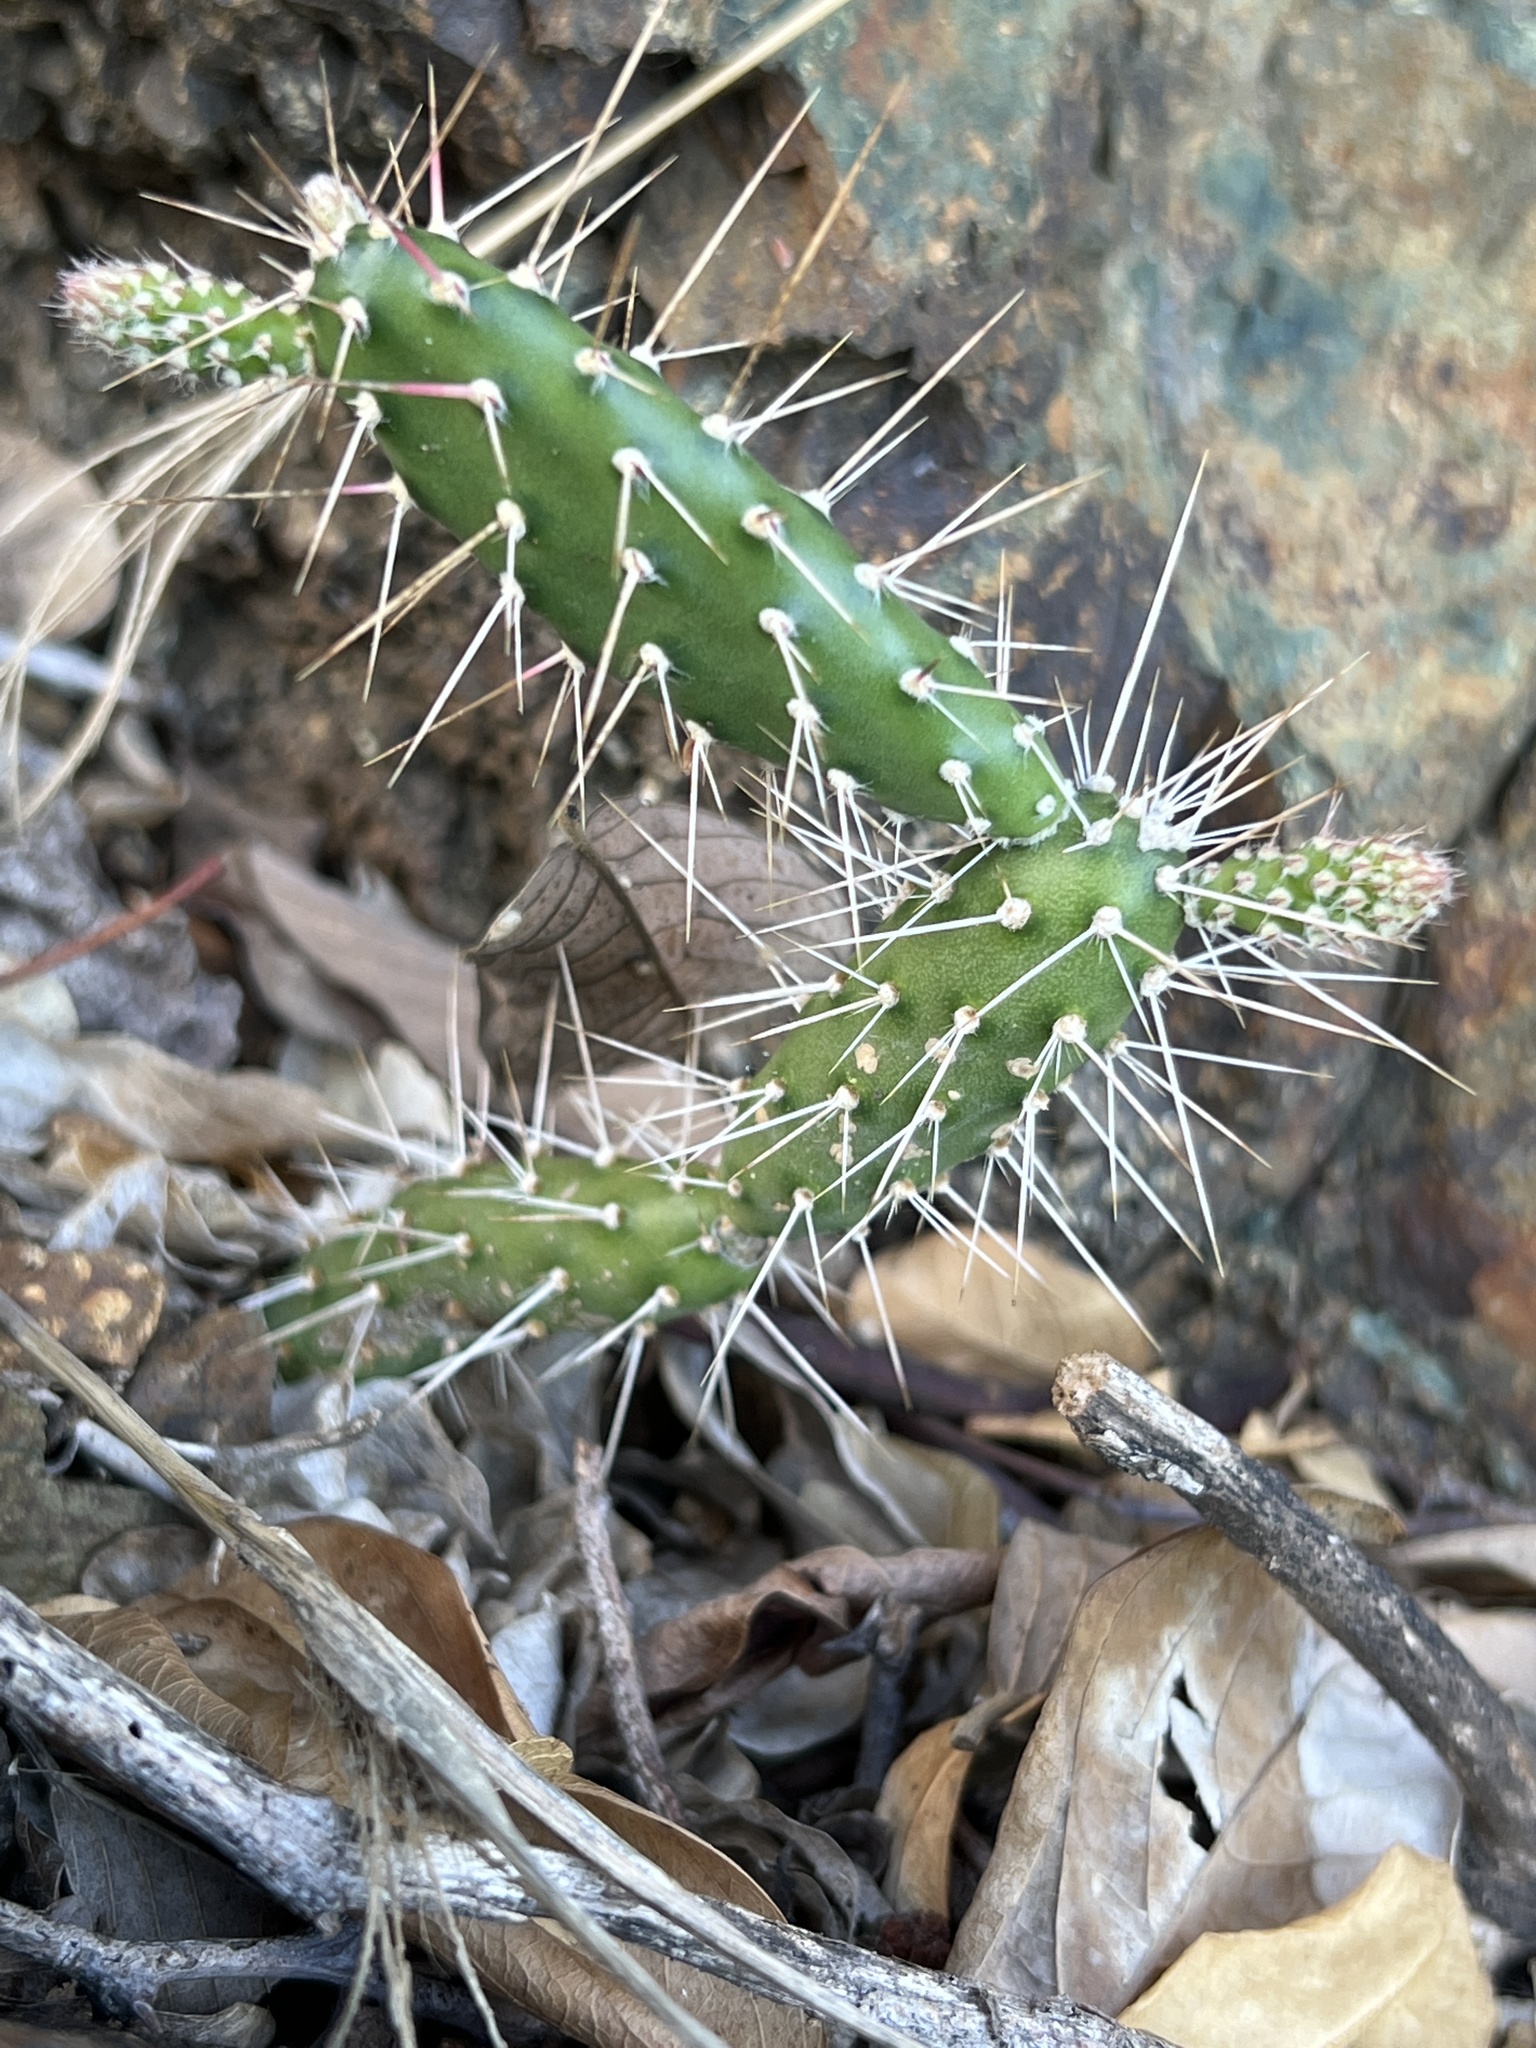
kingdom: Plantae
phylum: Tracheophyta
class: Magnoliopsida
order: Caryophyllales
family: Cactaceae
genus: Opuntia
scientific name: Opuntia repens
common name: Roving pricklypear
